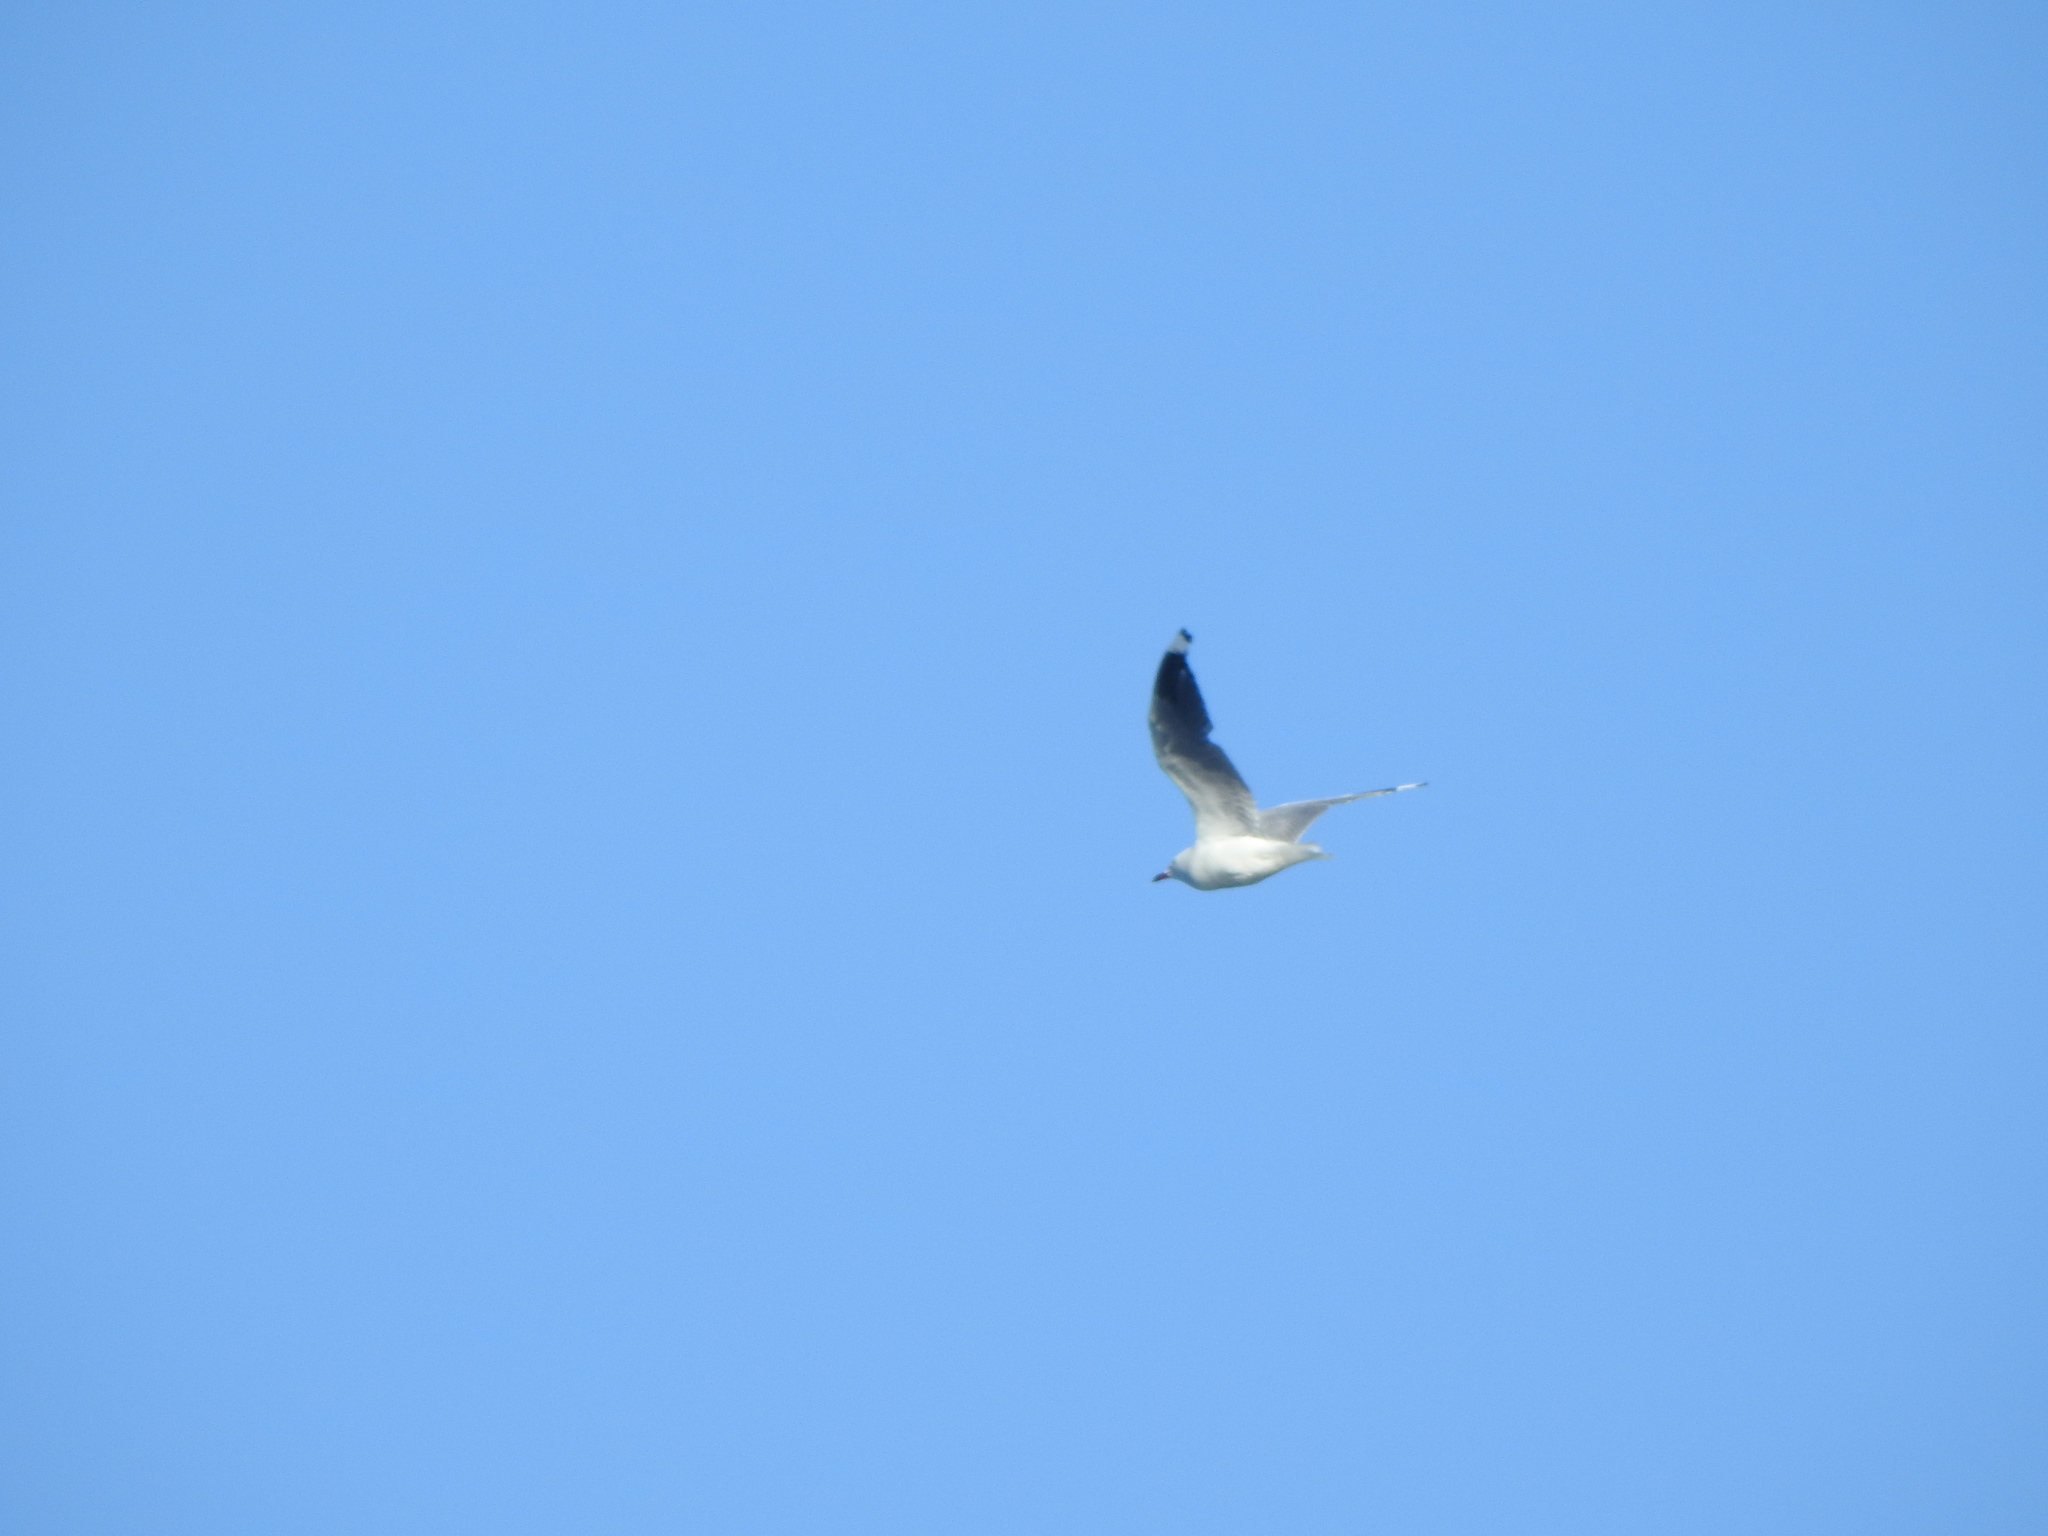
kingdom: Animalia
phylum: Chordata
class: Aves
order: Charadriiformes
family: Laridae
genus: Chroicocephalus
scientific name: Chroicocephalus novaehollandiae
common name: Silver gull
